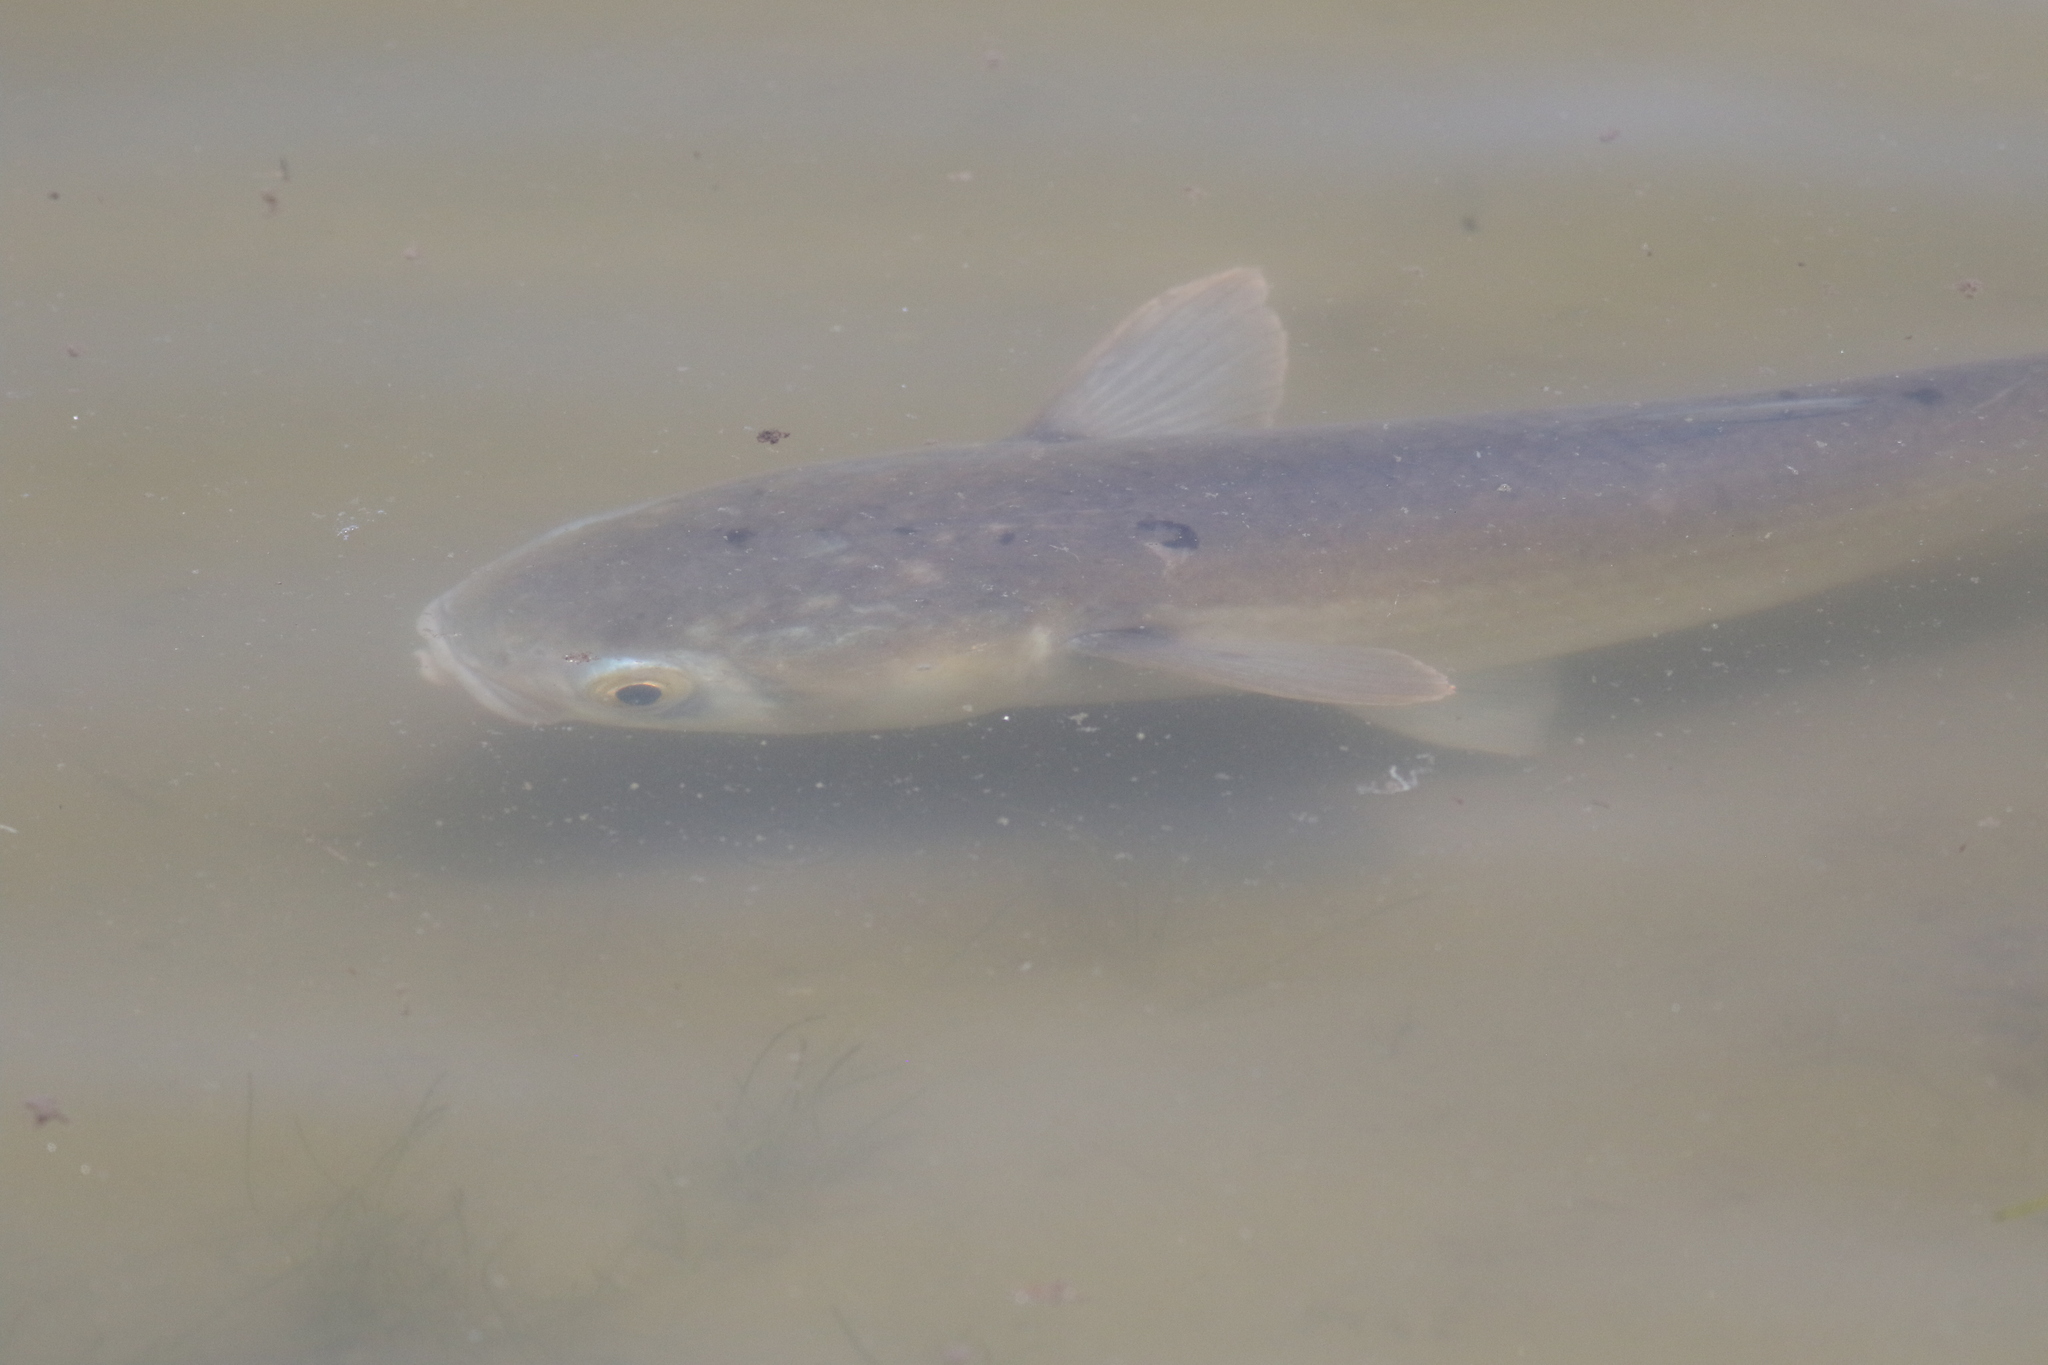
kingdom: Animalia
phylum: Chordata
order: Mugiliformes
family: Mugilidae
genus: Mugil
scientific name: Mugil cephalus
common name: Grey mullet
